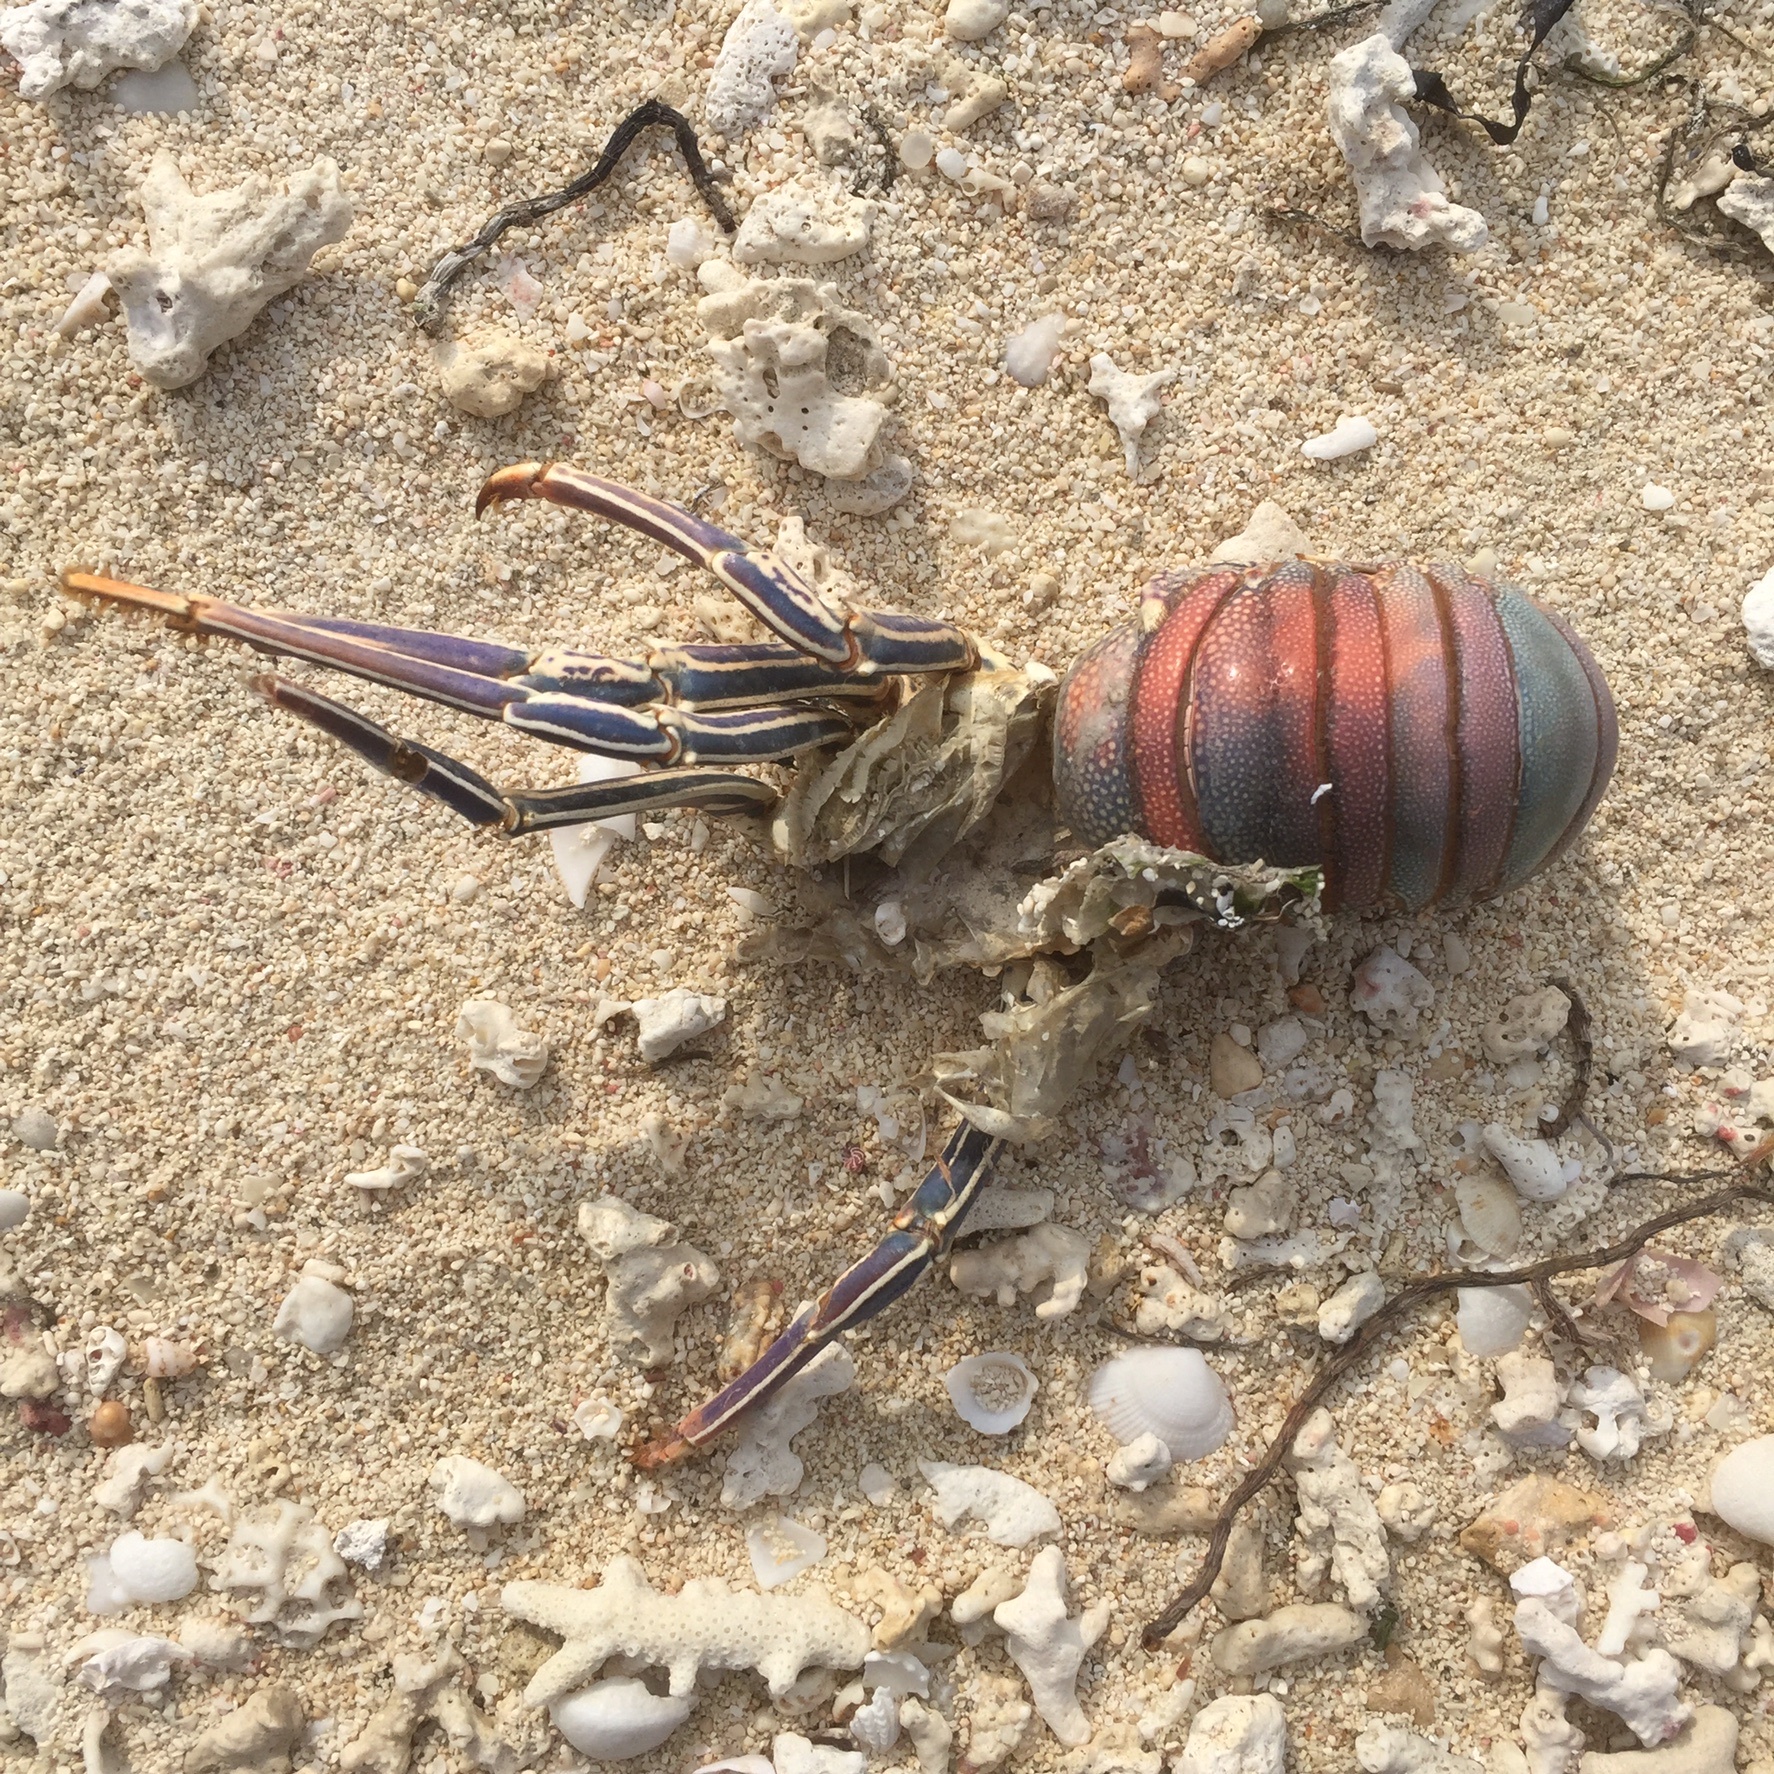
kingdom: Animalia
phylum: Arthropoda
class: Malacostraca
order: Decapoda
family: Palinuridae
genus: Panulirus
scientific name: Panulirus penicillatus
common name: Pronghorn spiny lobster
